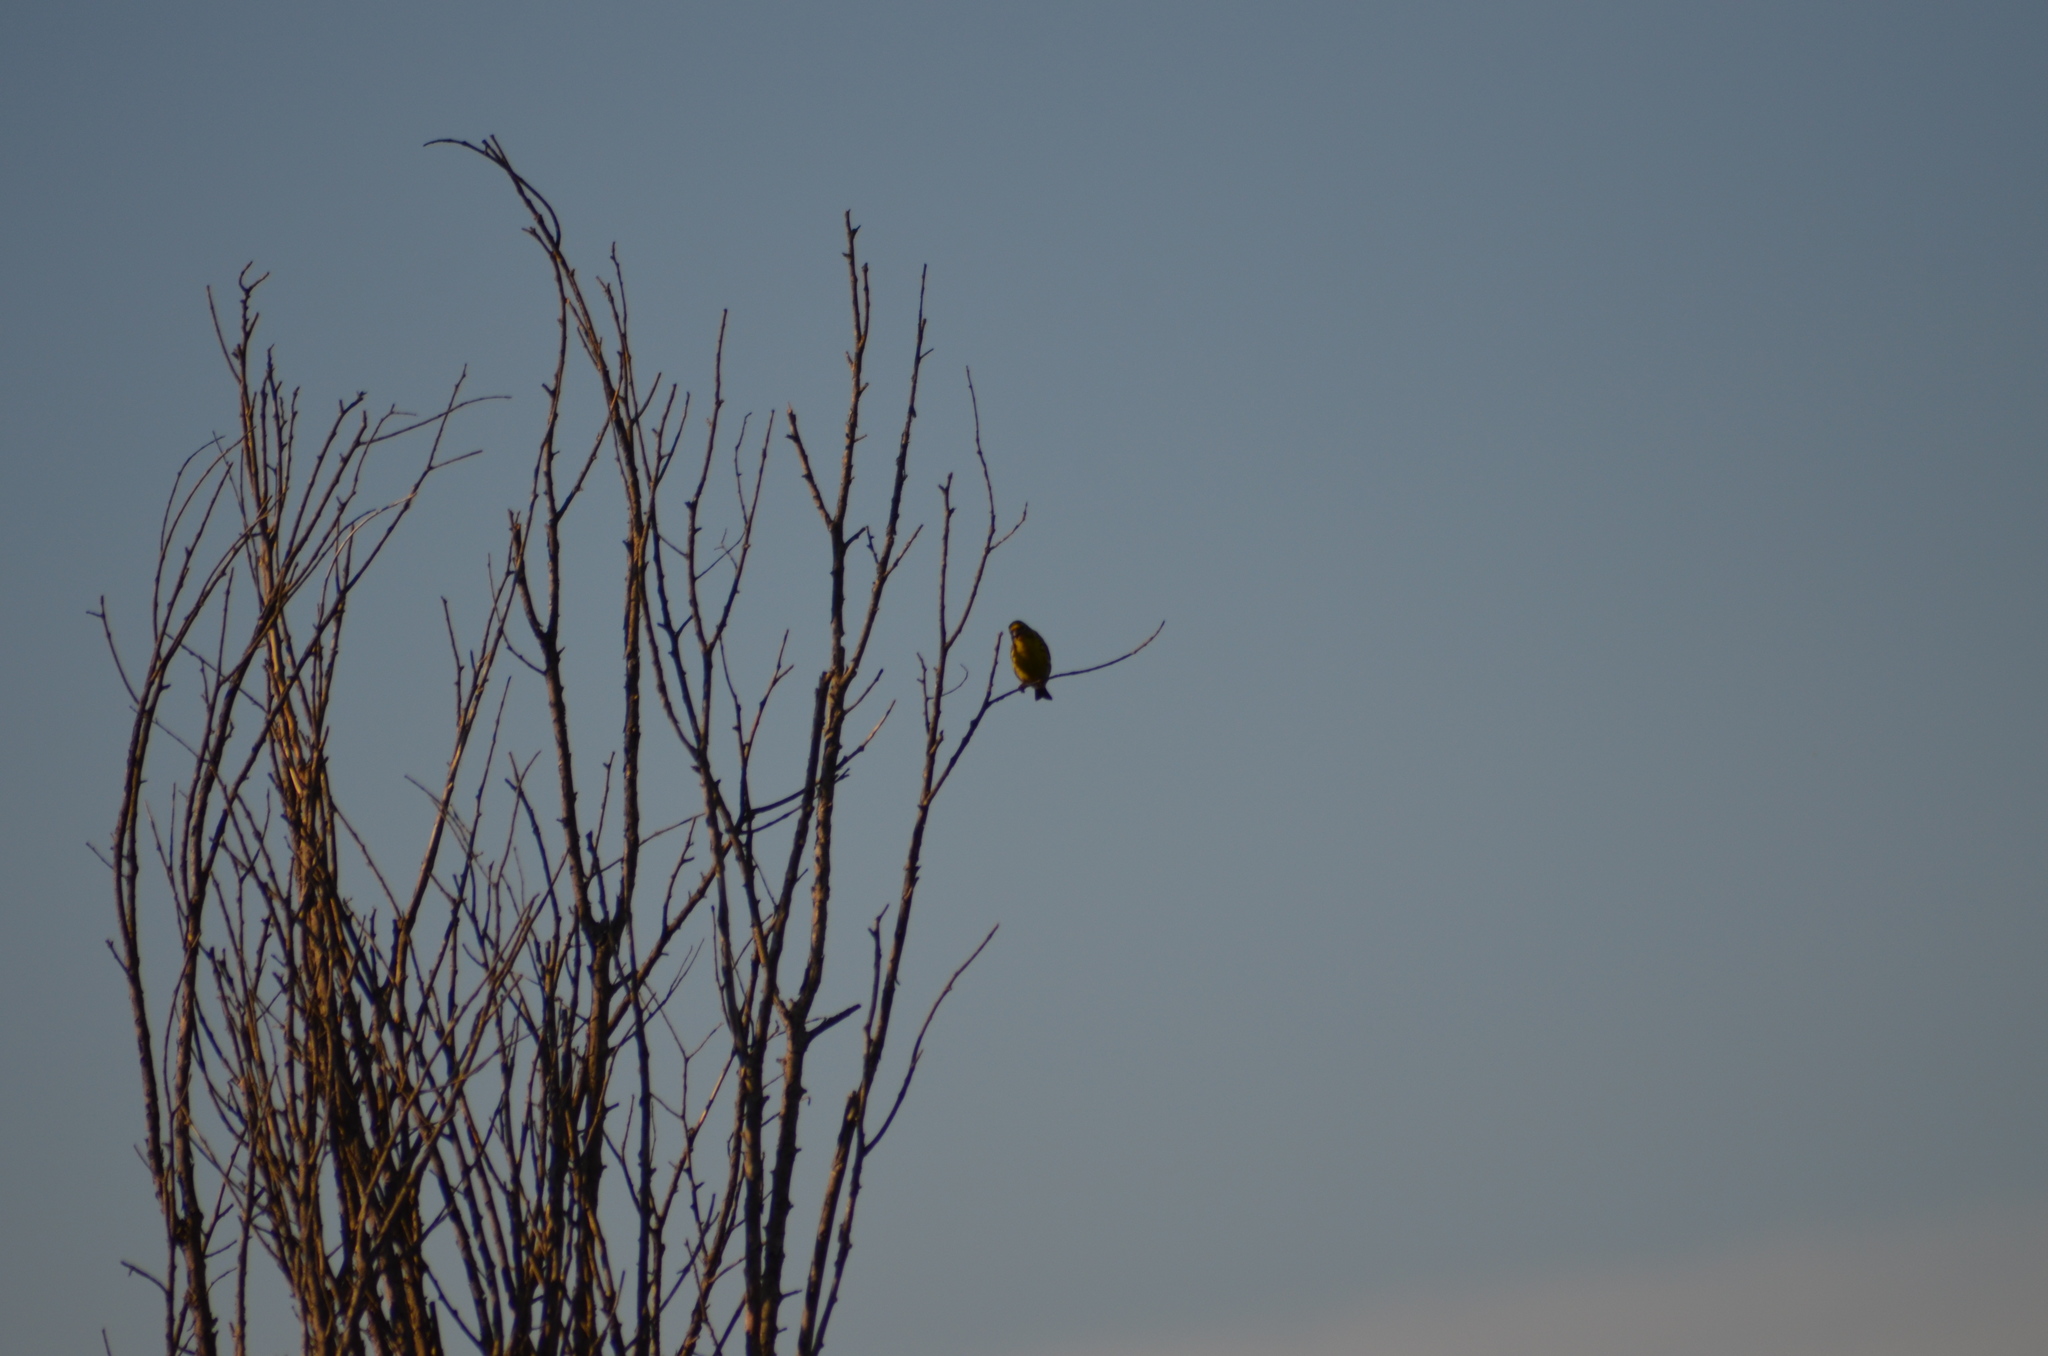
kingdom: Animalia
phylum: Chordata
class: Aves
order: Passeriformes
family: Fringillidae
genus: Serinus
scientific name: Serinus serinus
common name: European serin
